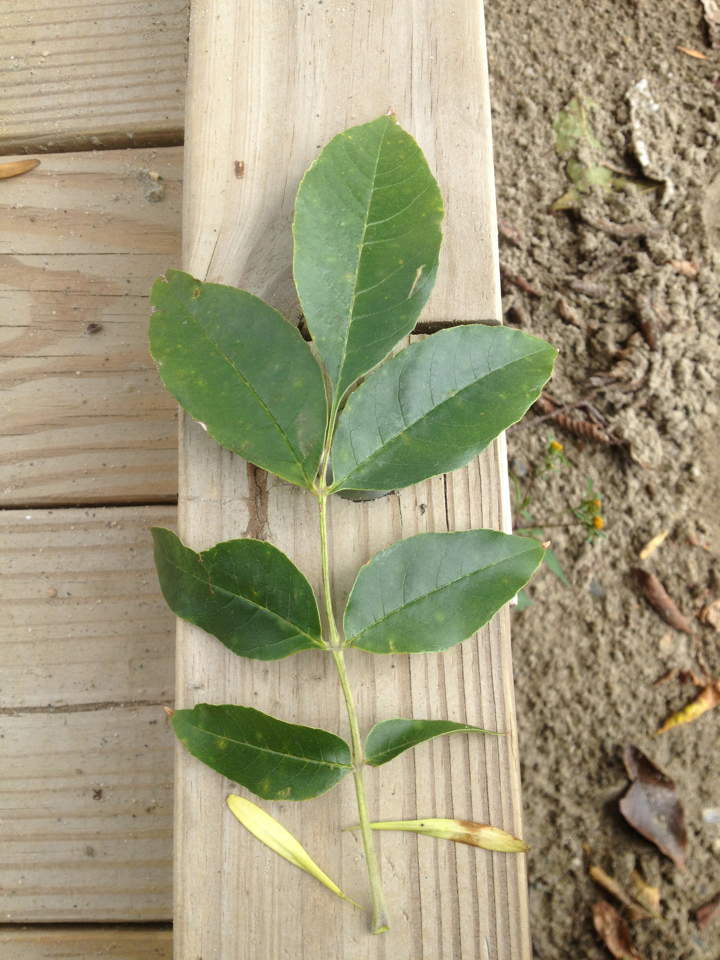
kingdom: Plantae
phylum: Tracheophyta
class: Magnoliopsida
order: Lamiales
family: Oleaceae
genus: Fraxinus
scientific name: Fraxinus pennsylvanica
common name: Green ash
